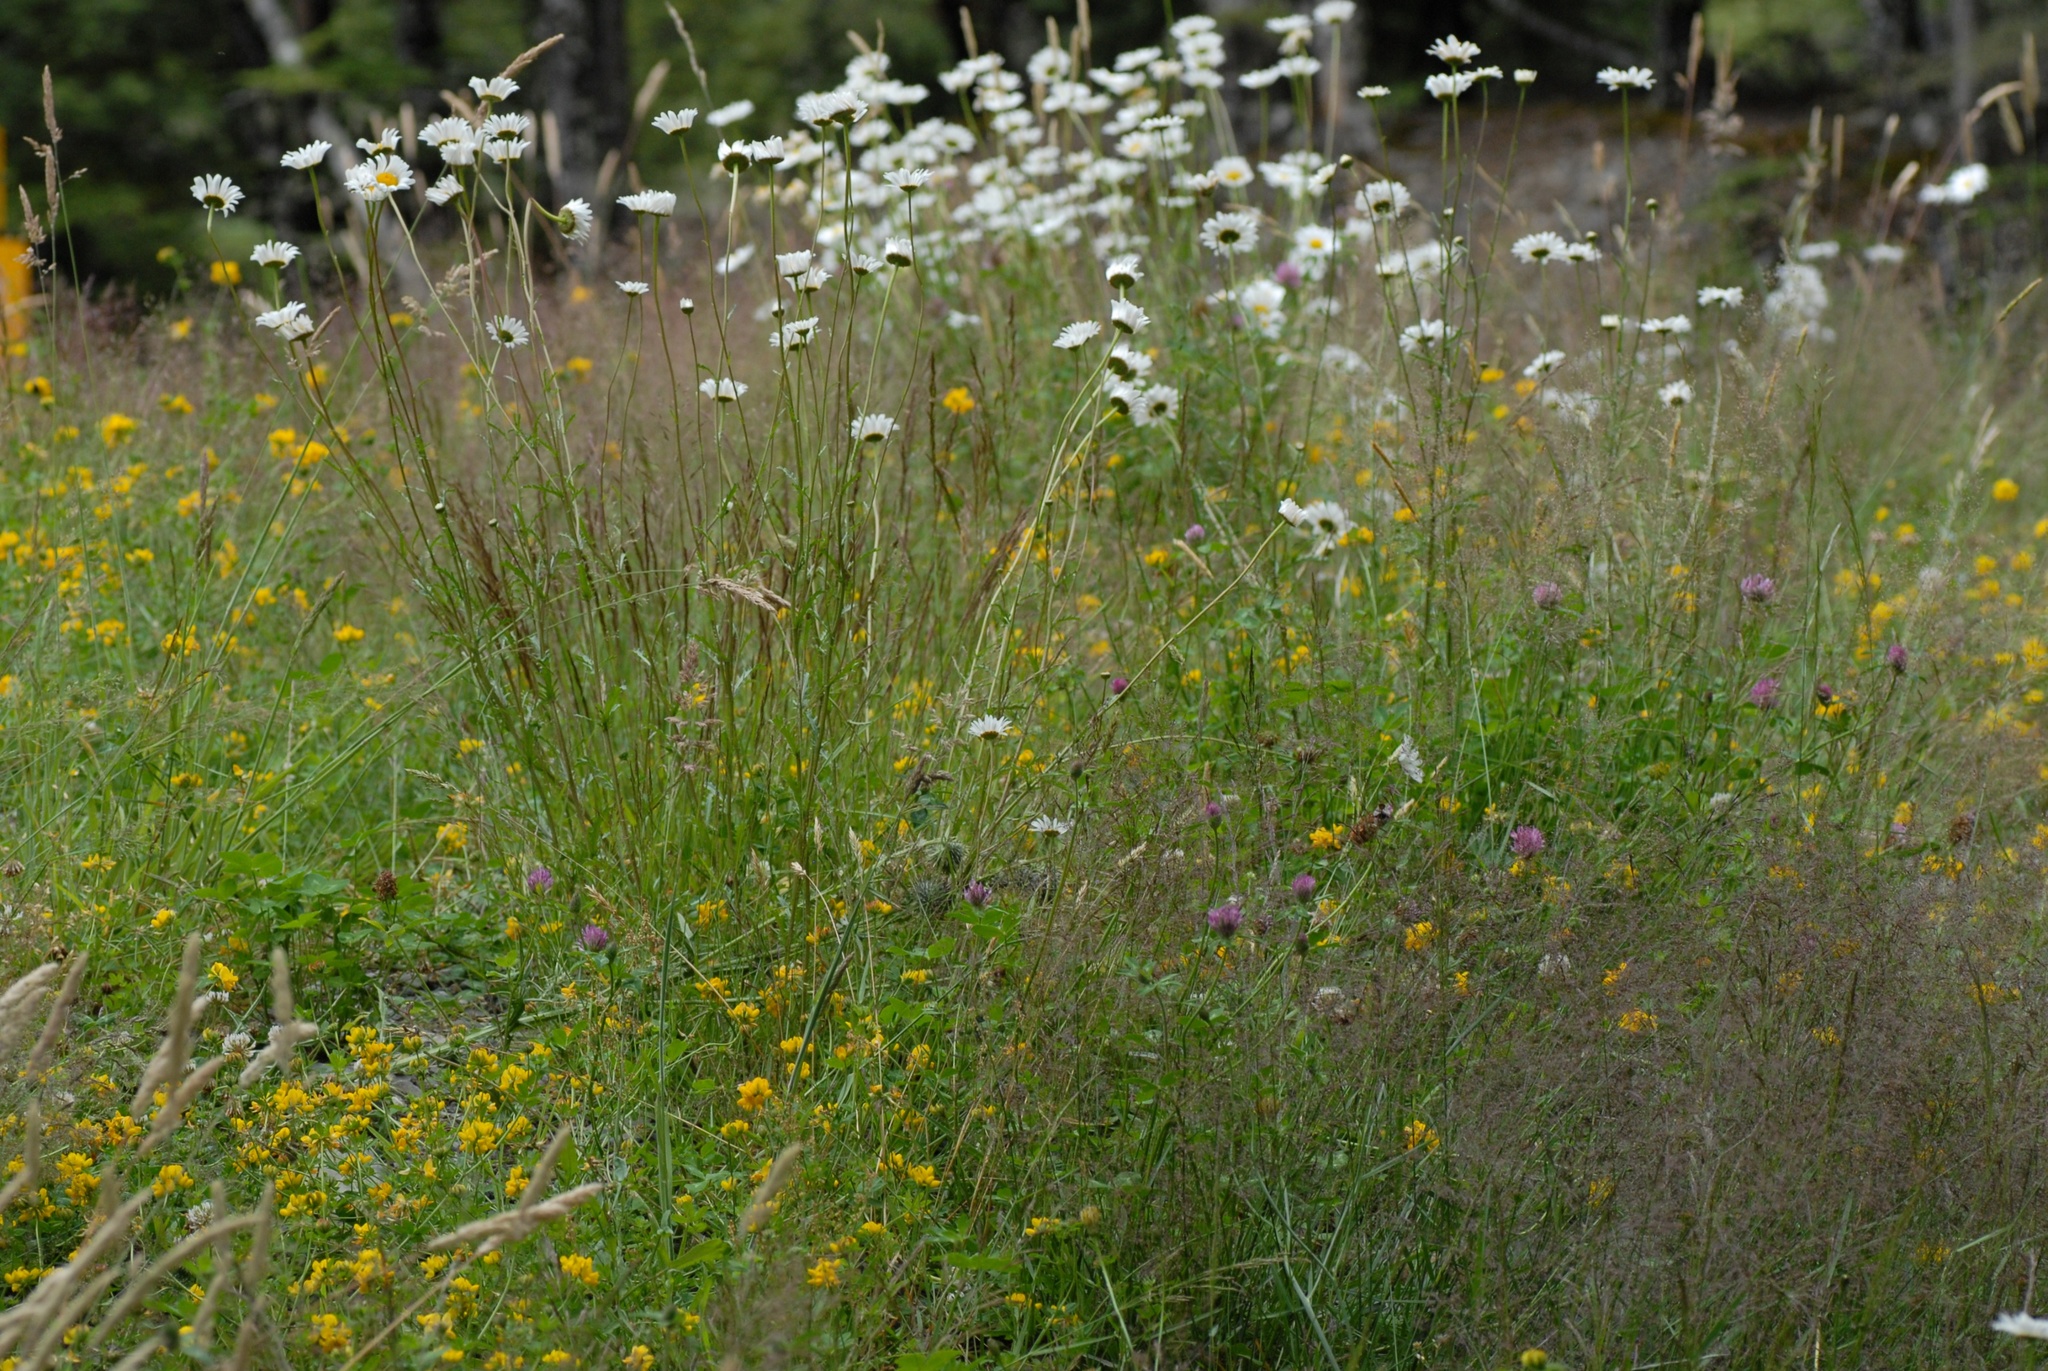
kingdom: Plantae
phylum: Tracheophyta
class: Magnoliopsida
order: Asterales
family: Asteraceae
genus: Leucanthemum
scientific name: Leucanthemum vulgare
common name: Oxeye daisy
